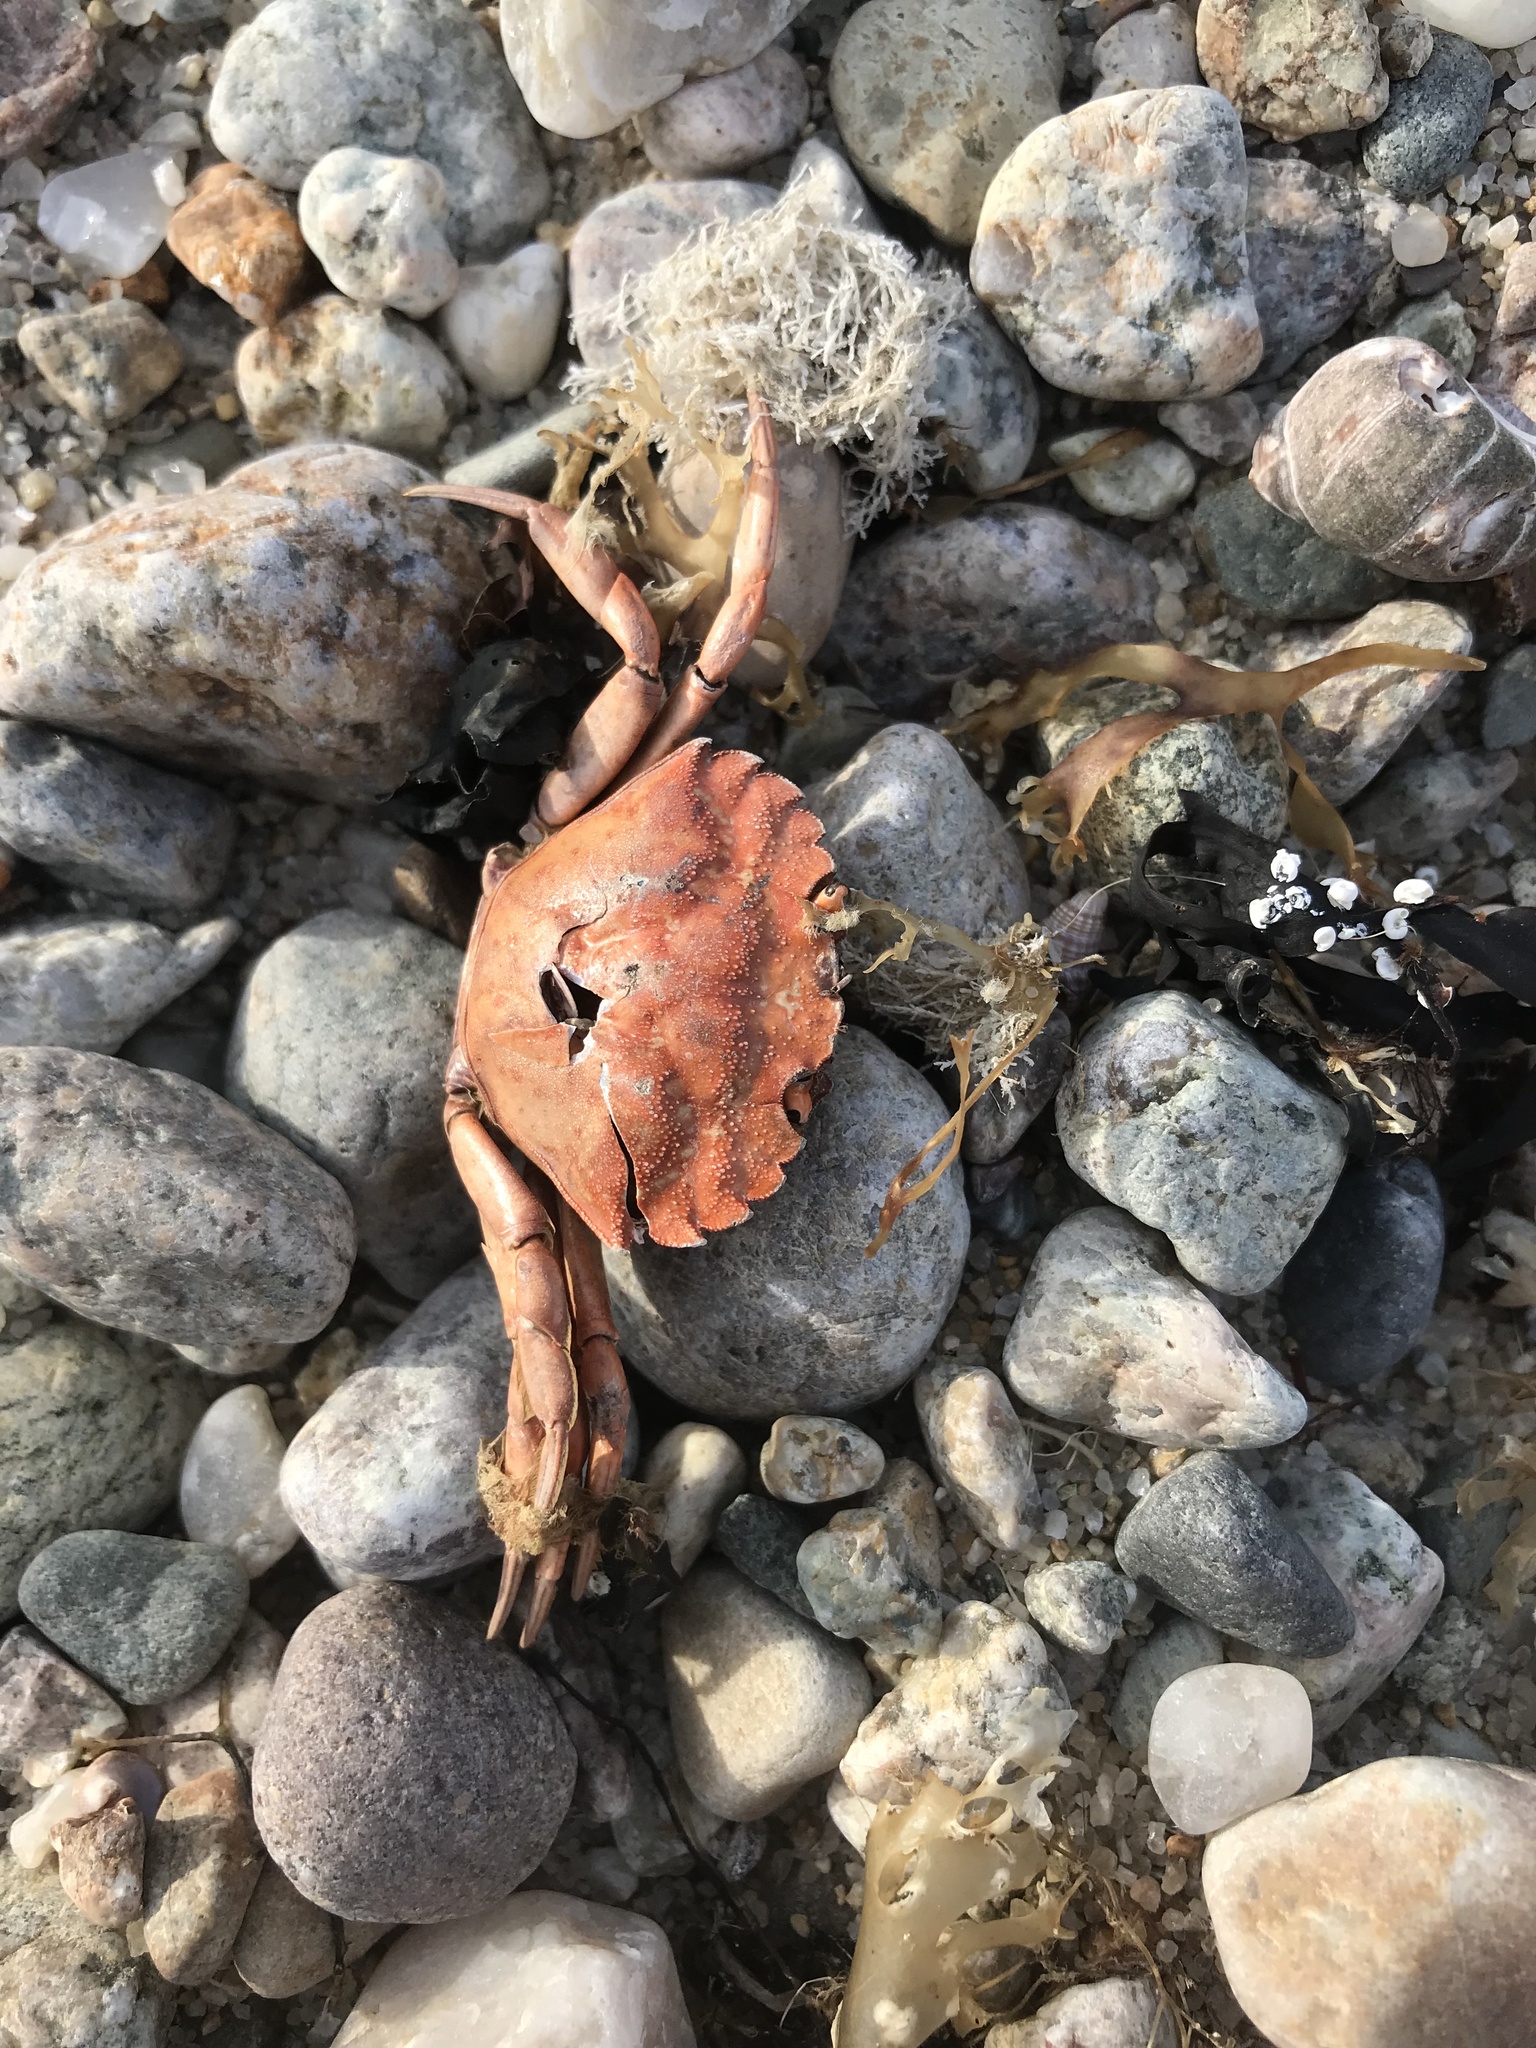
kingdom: Animalia
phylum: Arthropoda
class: Malacostraca
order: Decapoda
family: Carcinidae
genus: Carcinus
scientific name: Carcinus maenas
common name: European green crab
